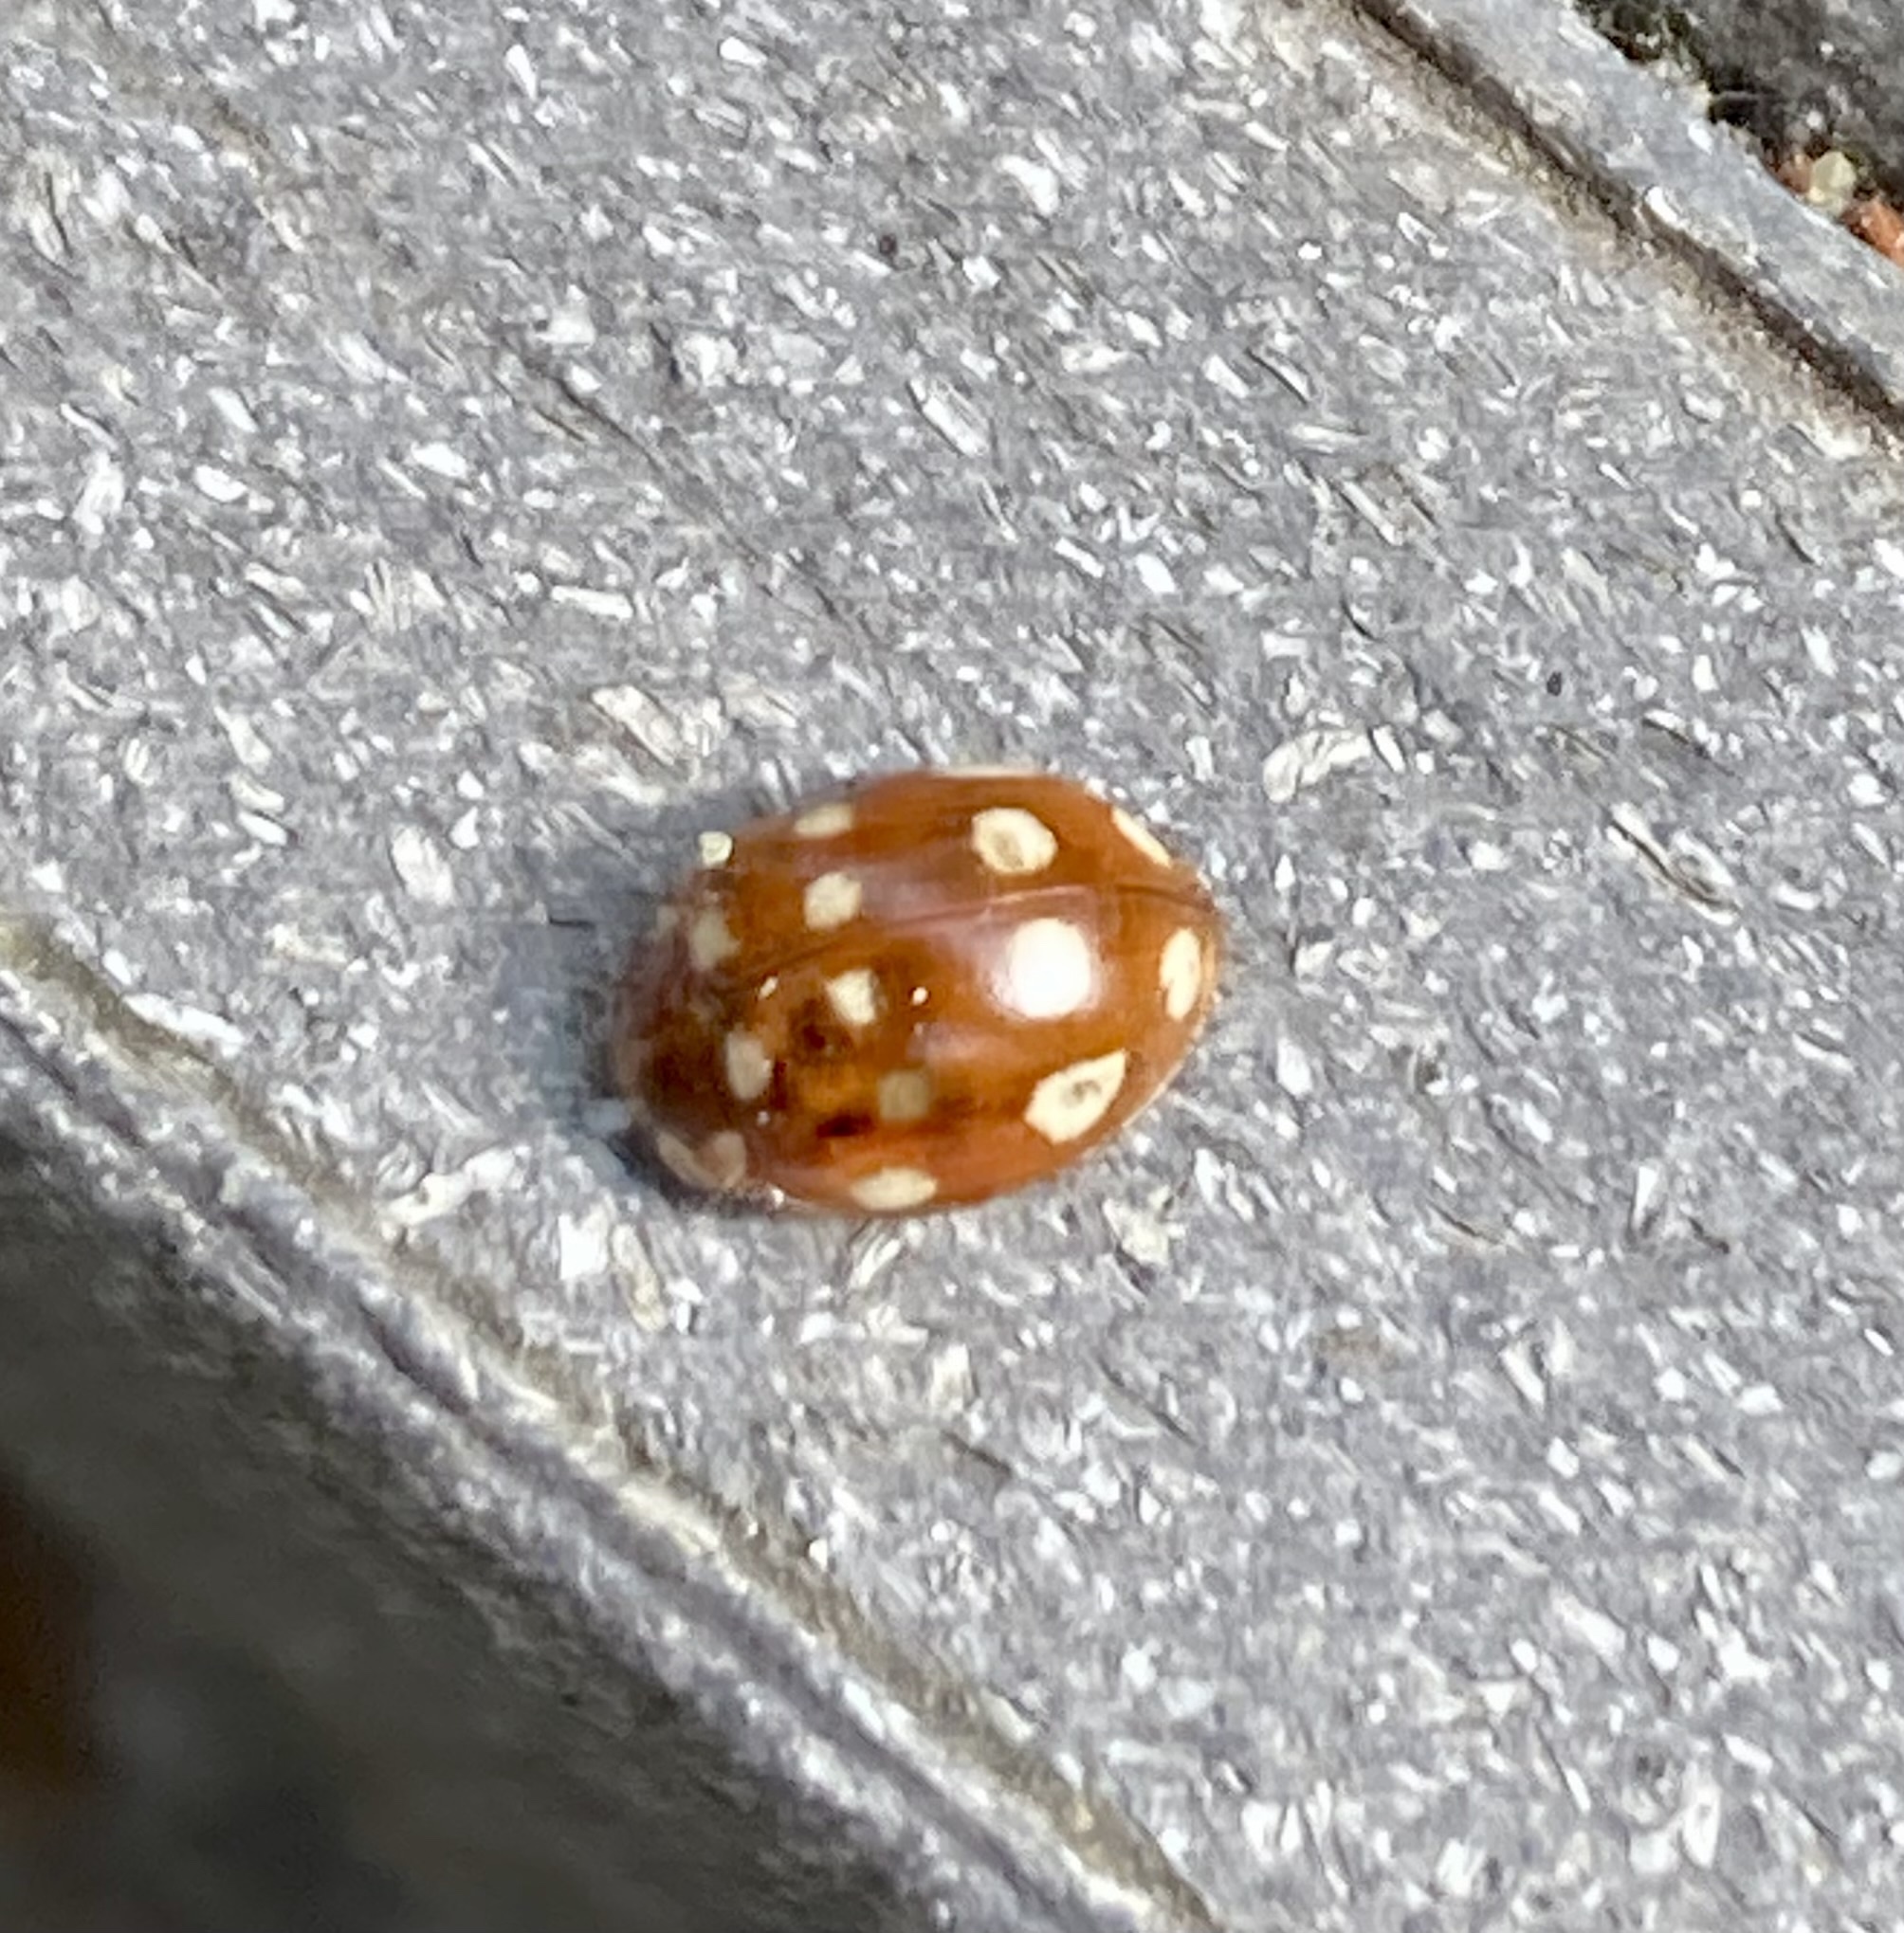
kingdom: Animalia
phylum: Arthropoda
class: Insecta
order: Coleoptera
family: Coccinellidae
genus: Calvia
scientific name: Calvia quatuordecimguttata
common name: Cream-spot ladybird
